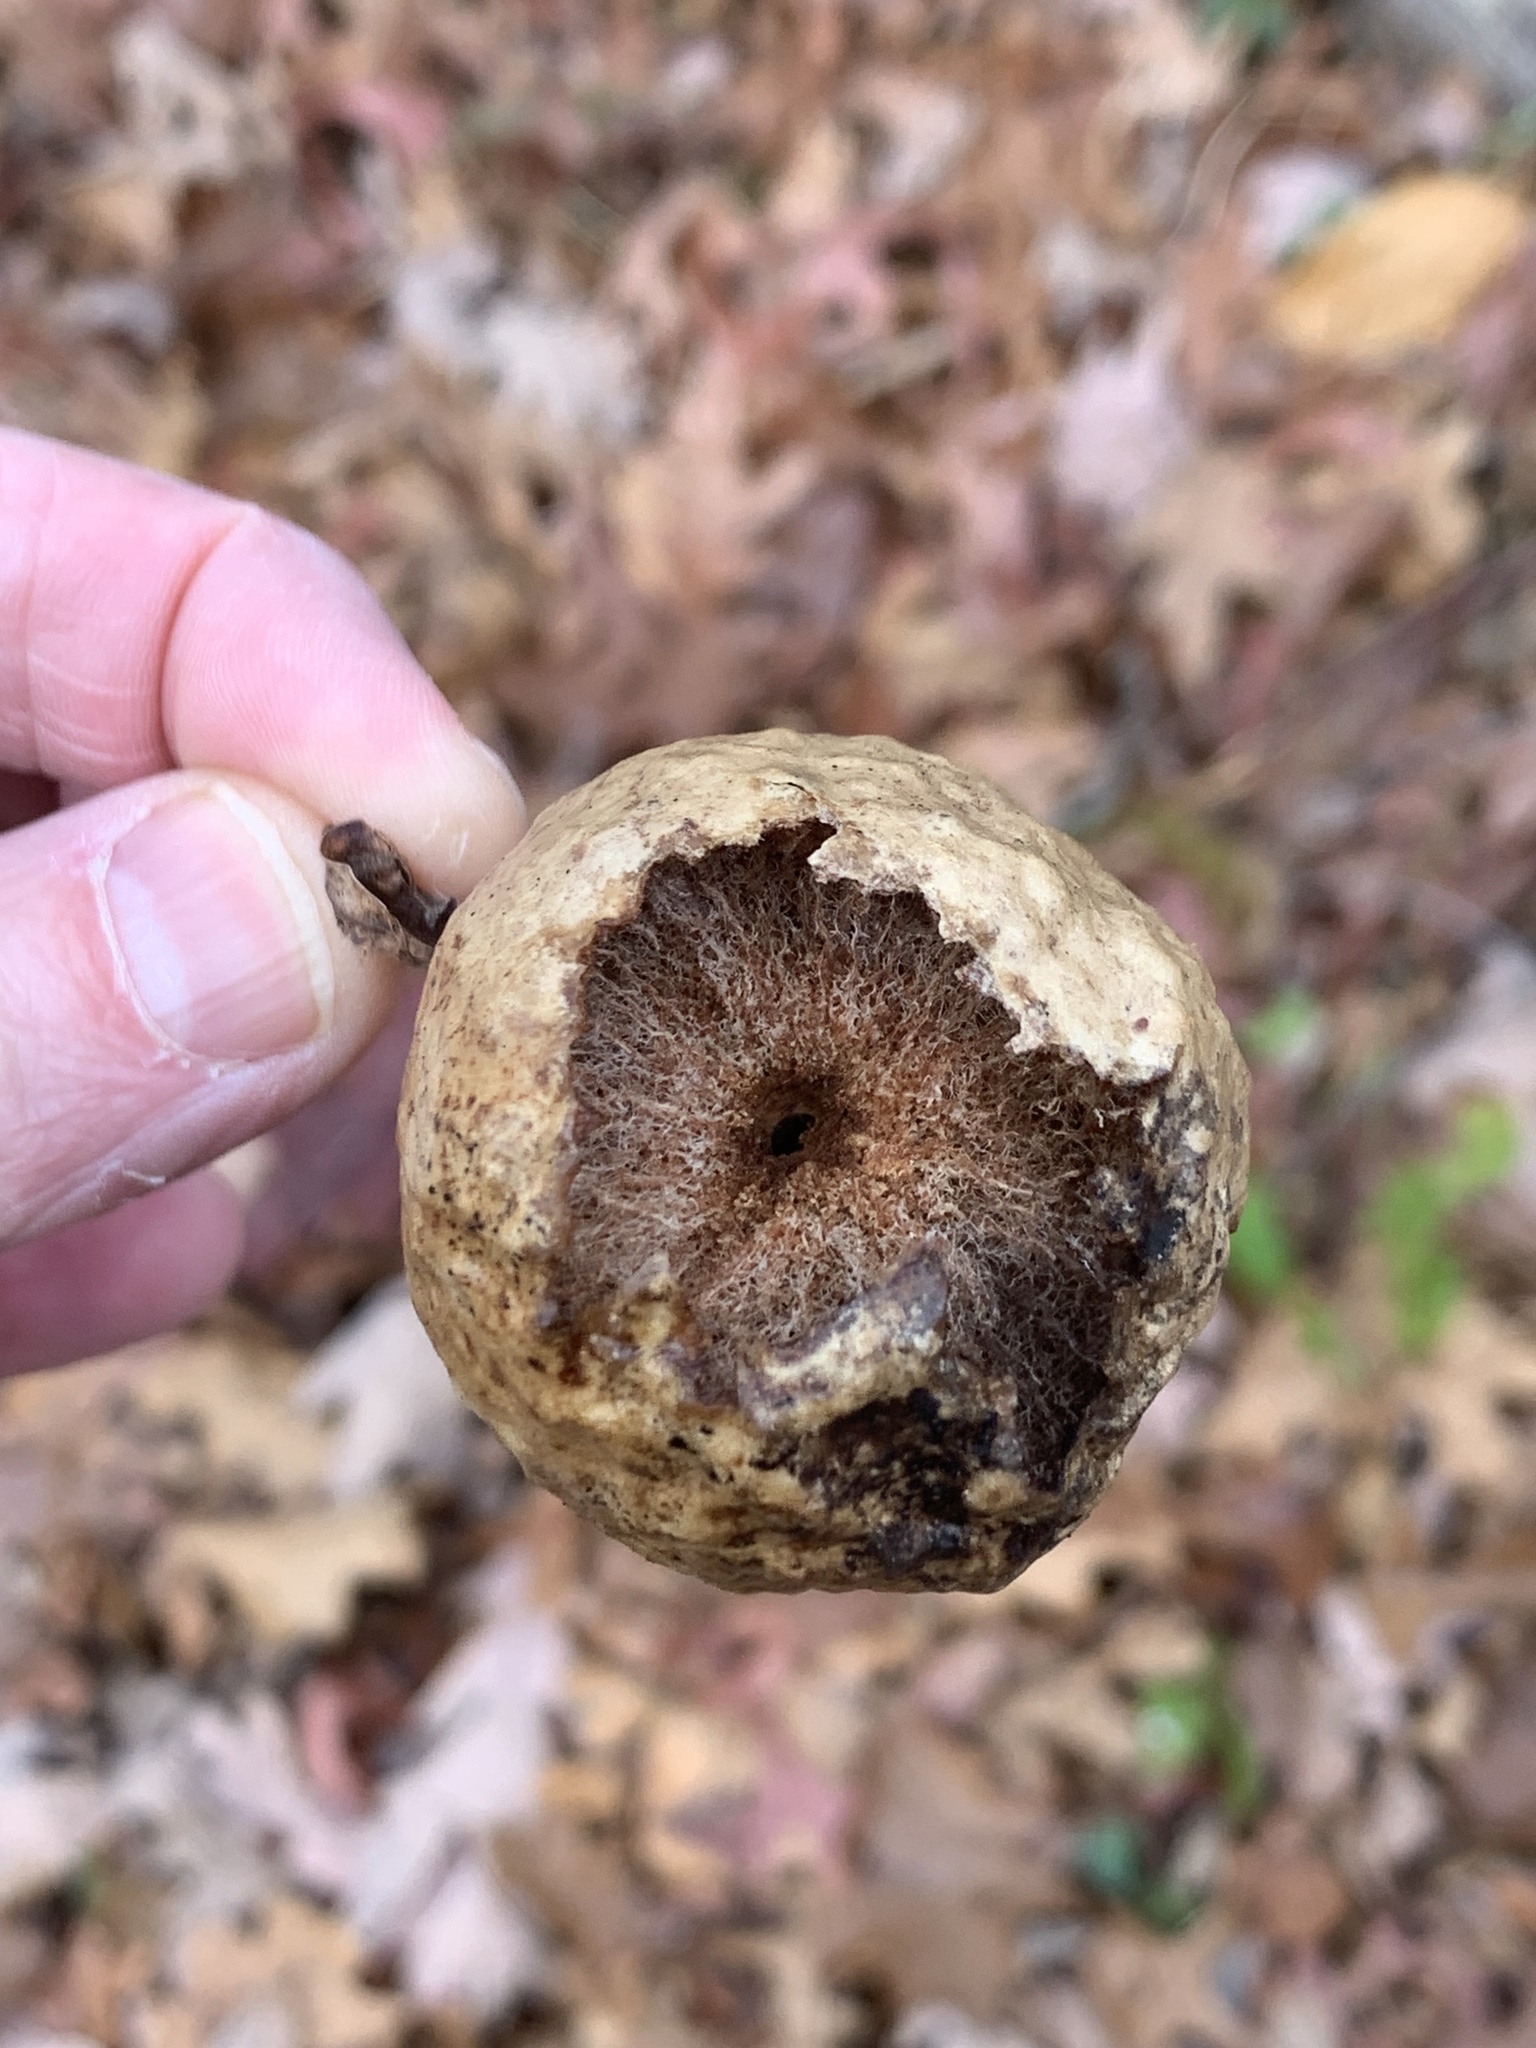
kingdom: Animalia
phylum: Arthropoda
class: Insecta
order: Hymenoptera
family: Cynipidae
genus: Amphibolips
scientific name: Amphibolips
